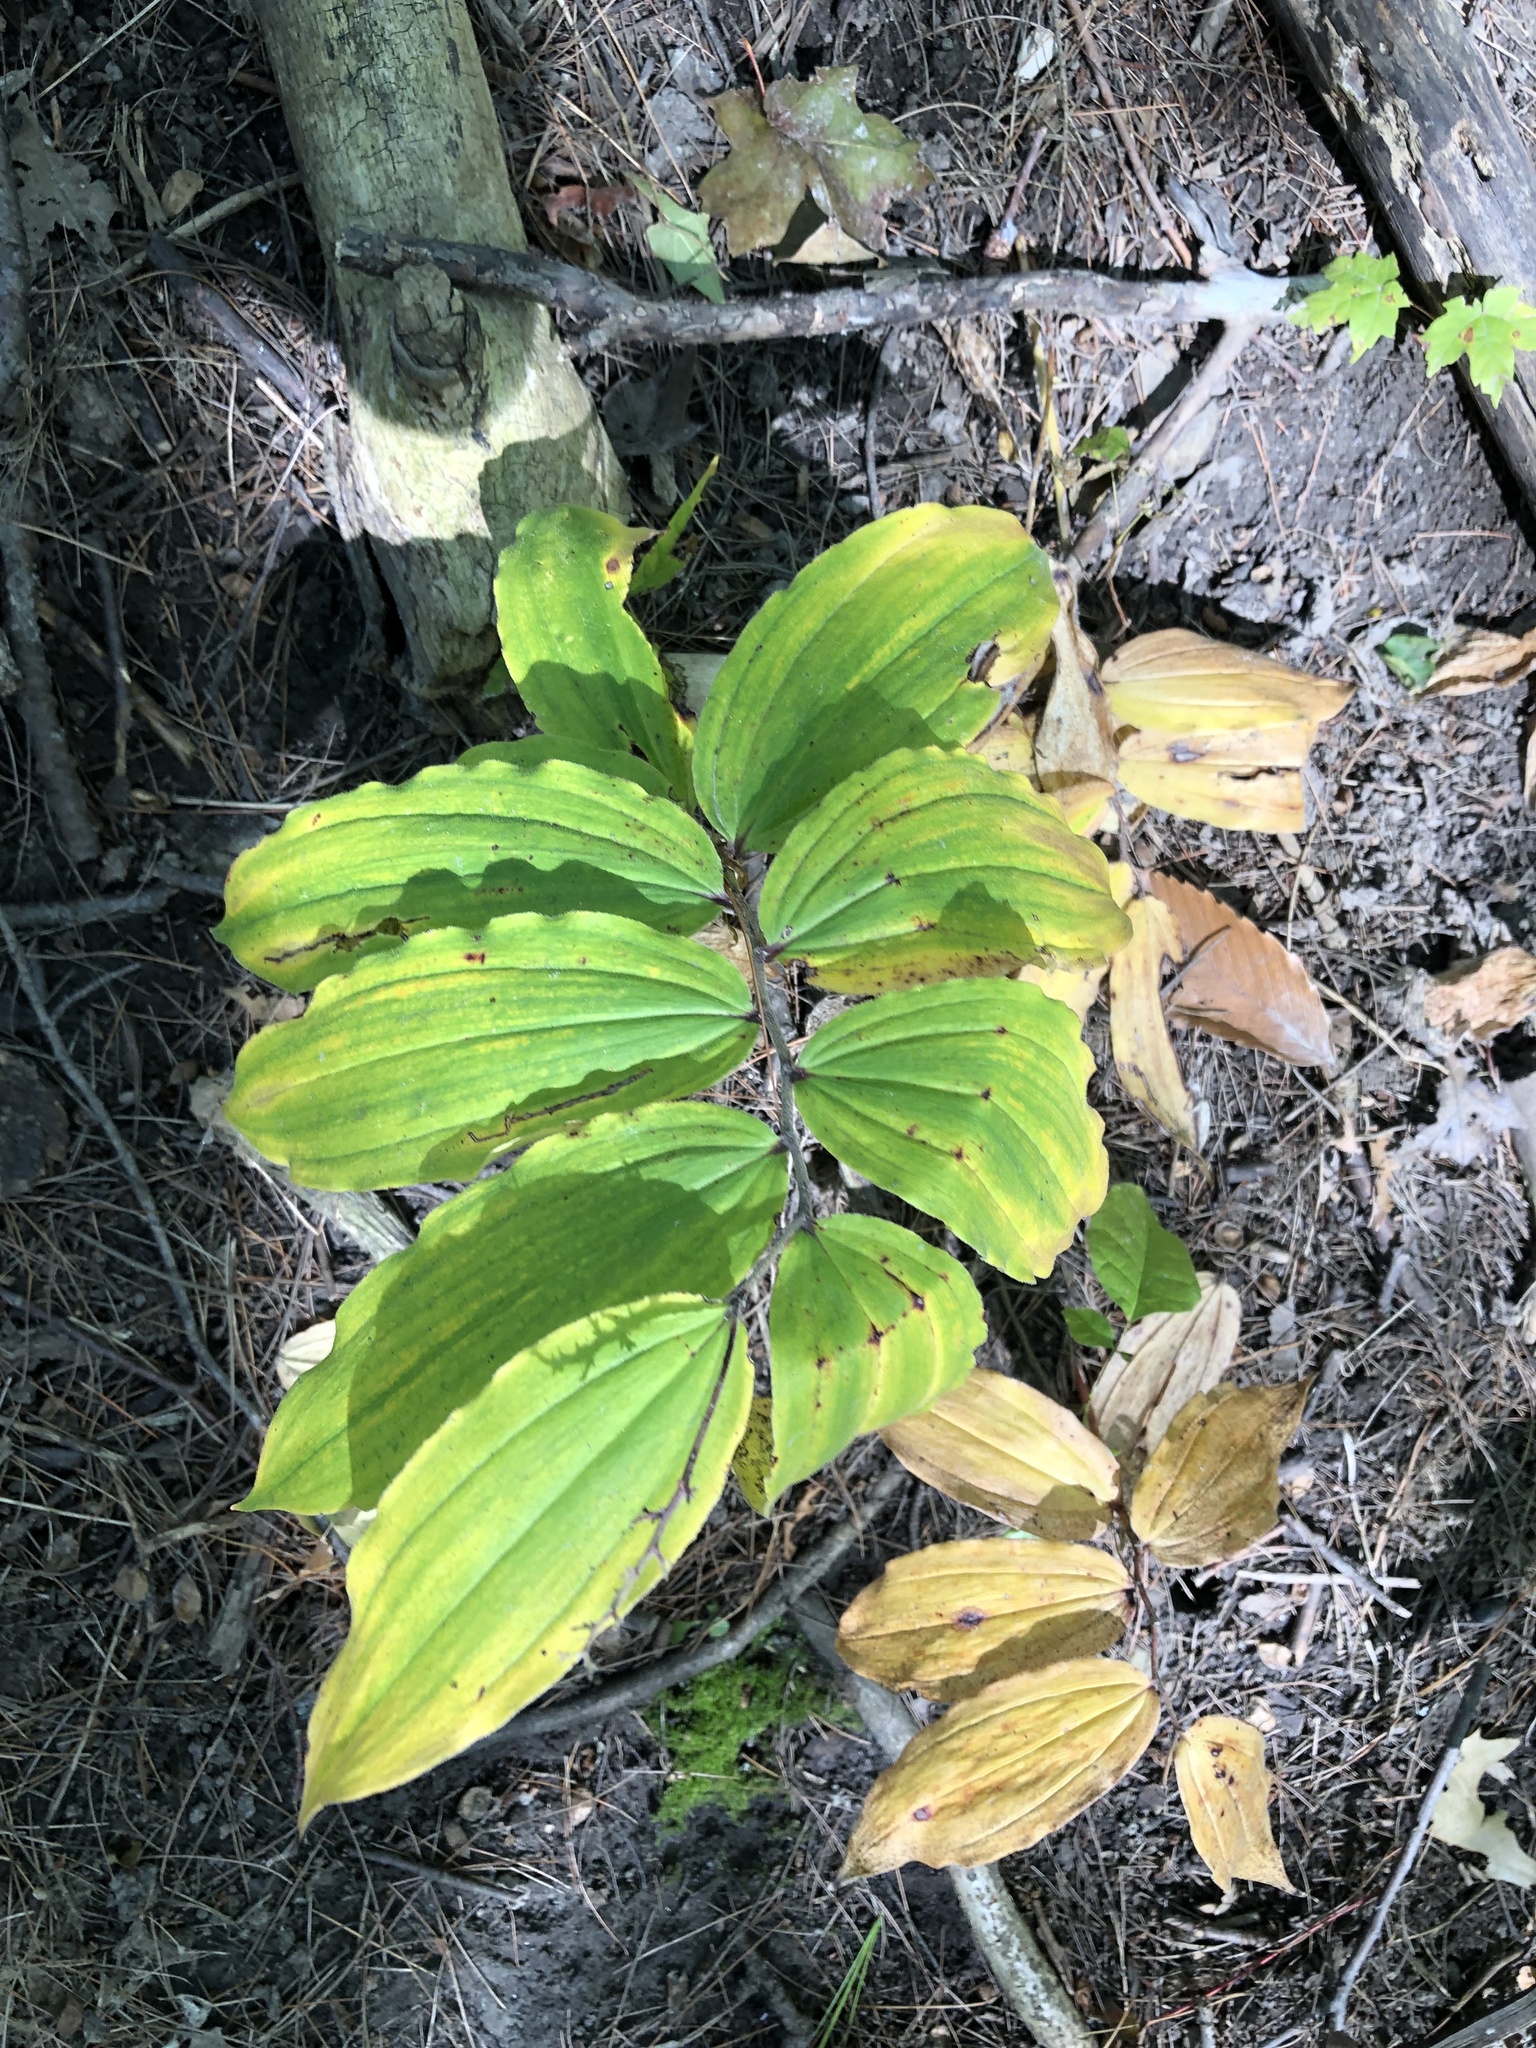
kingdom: Plantae
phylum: Tracheophyta
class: Liliopsida
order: Asparagales
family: Asparagaceae
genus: Maianthemum
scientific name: Maianthemum racemosum
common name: False spikenard
